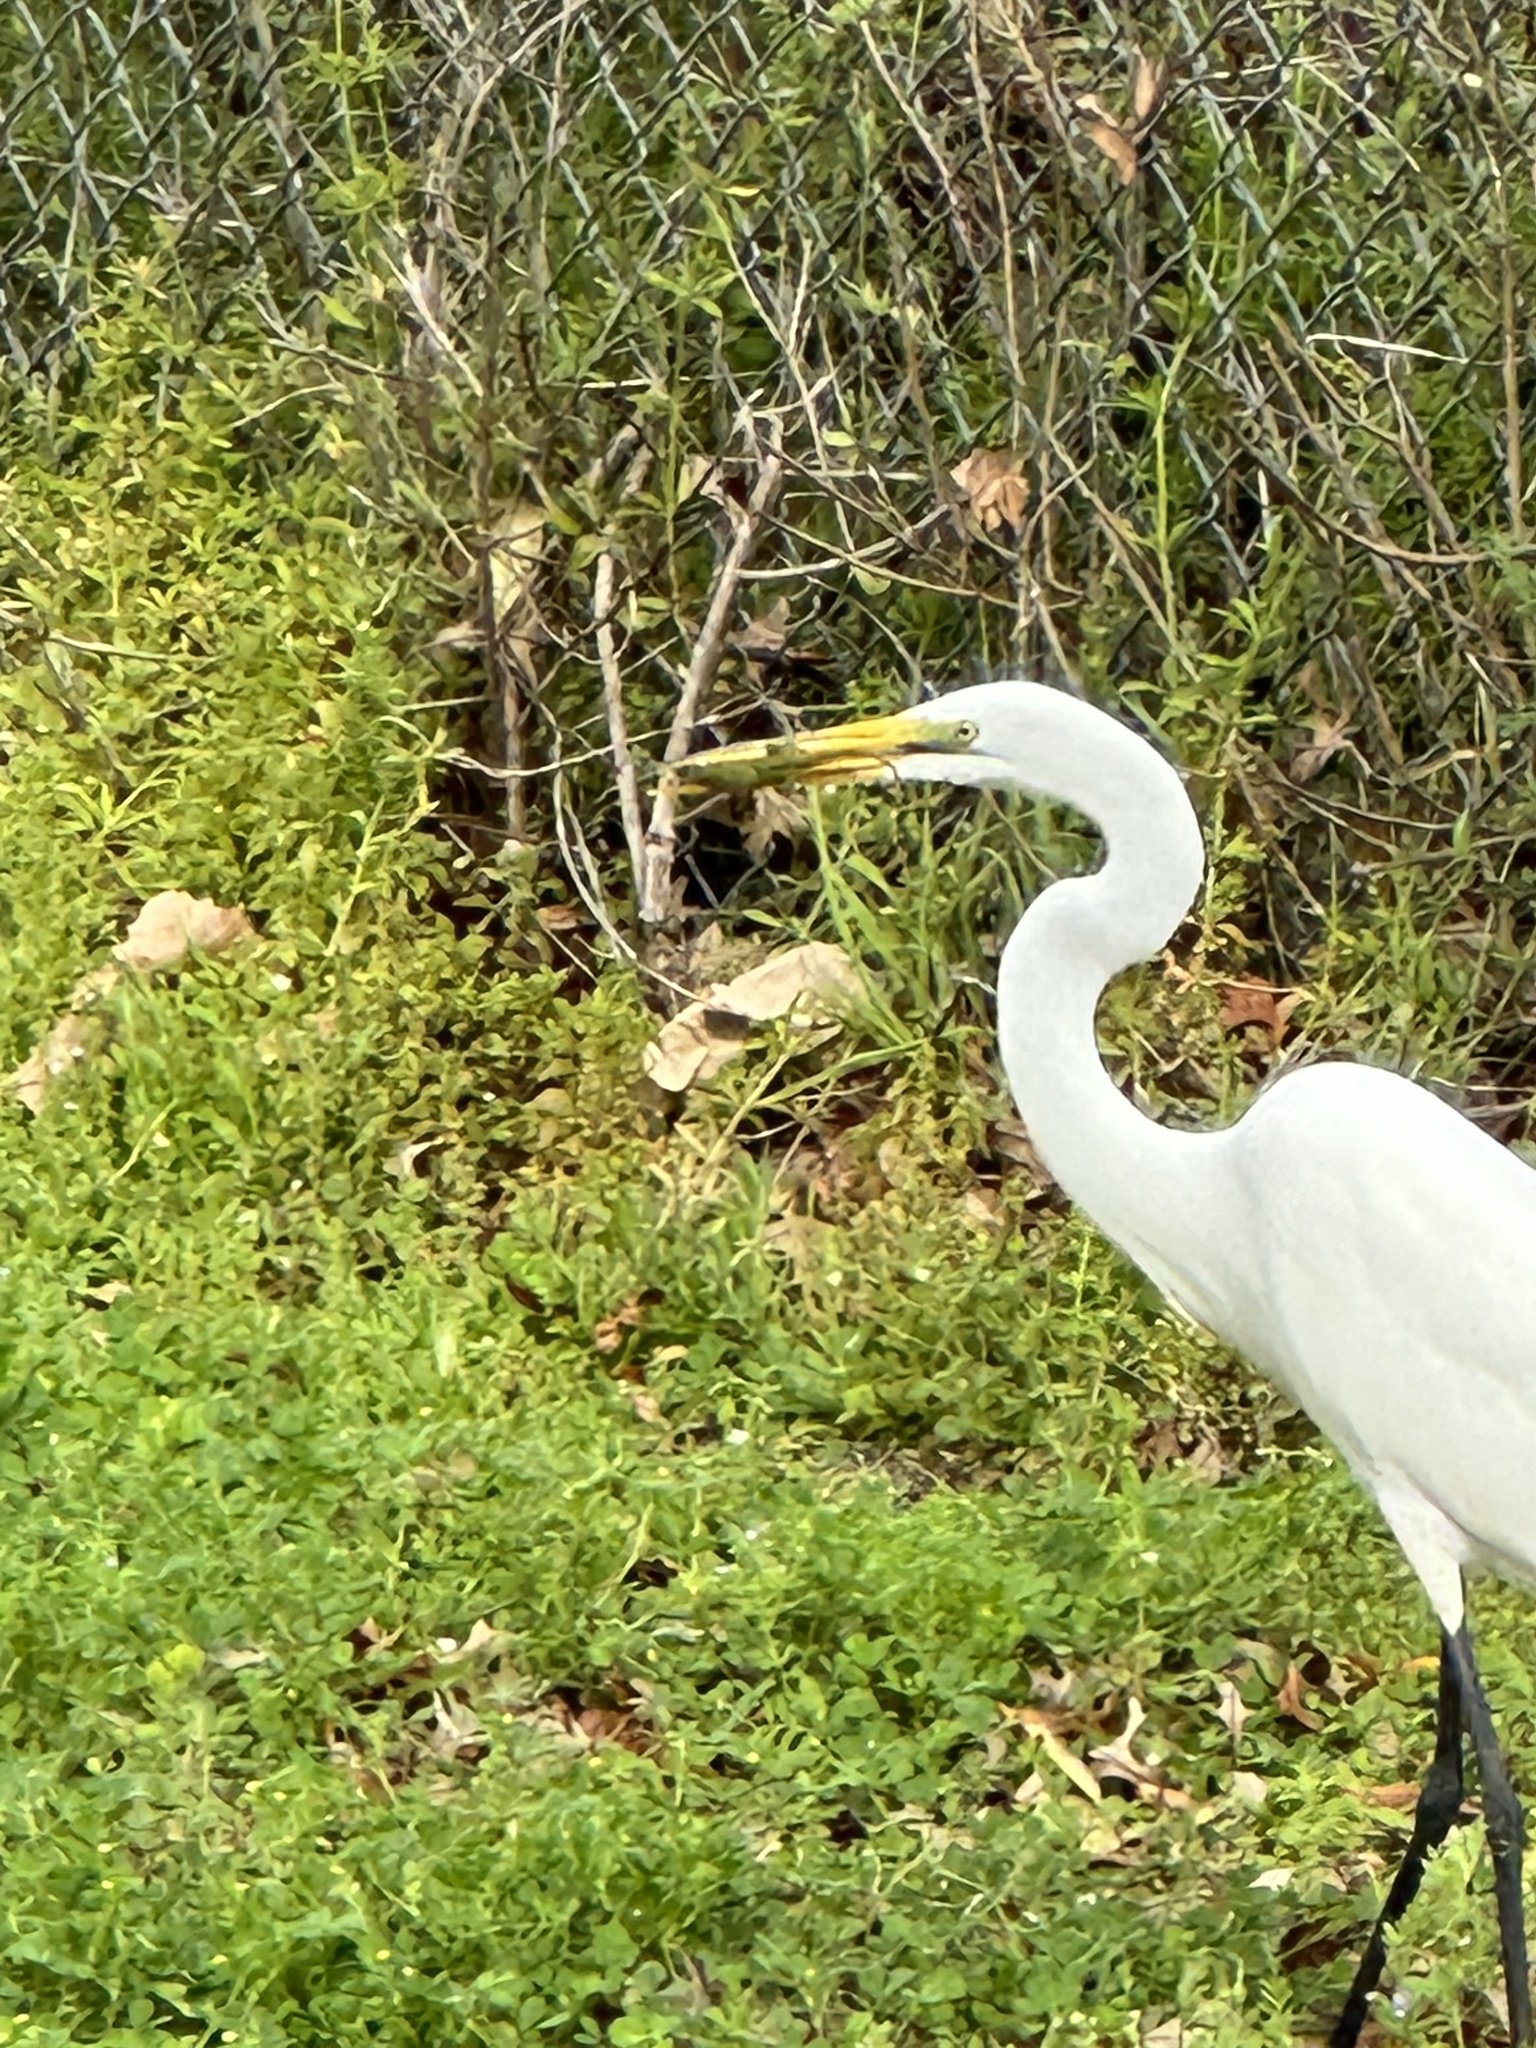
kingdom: Animalia
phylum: Chordata
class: Aves
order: Pelecaniformes
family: Ardeidae
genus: Ardea
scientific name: Ardea alba
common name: Great egret
